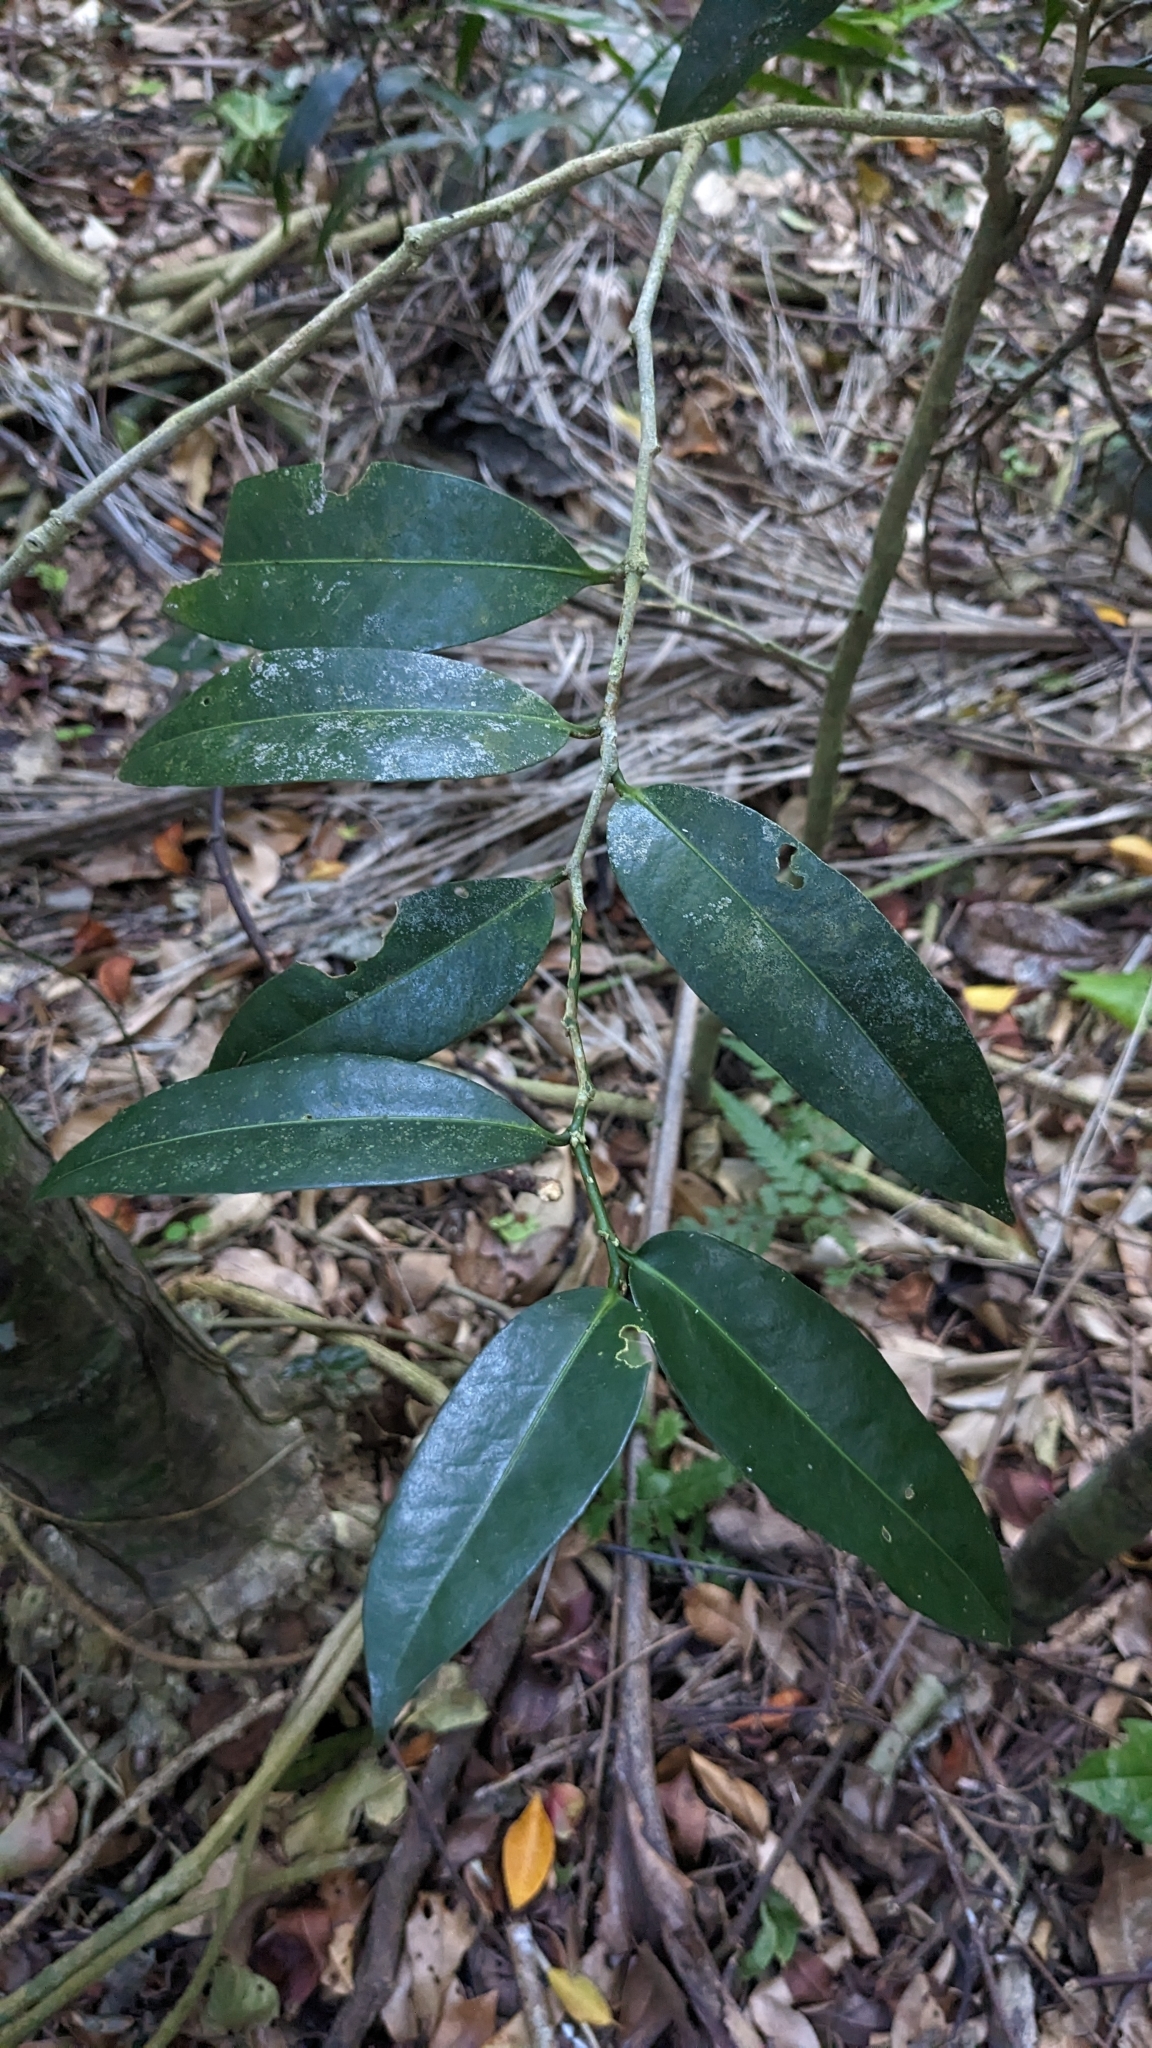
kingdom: Plantae
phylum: Tracheophyta
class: Magnoliopsida
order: Malpighiales
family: Putranjivaceae
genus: Drypetes
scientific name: Drypetes littoralis
